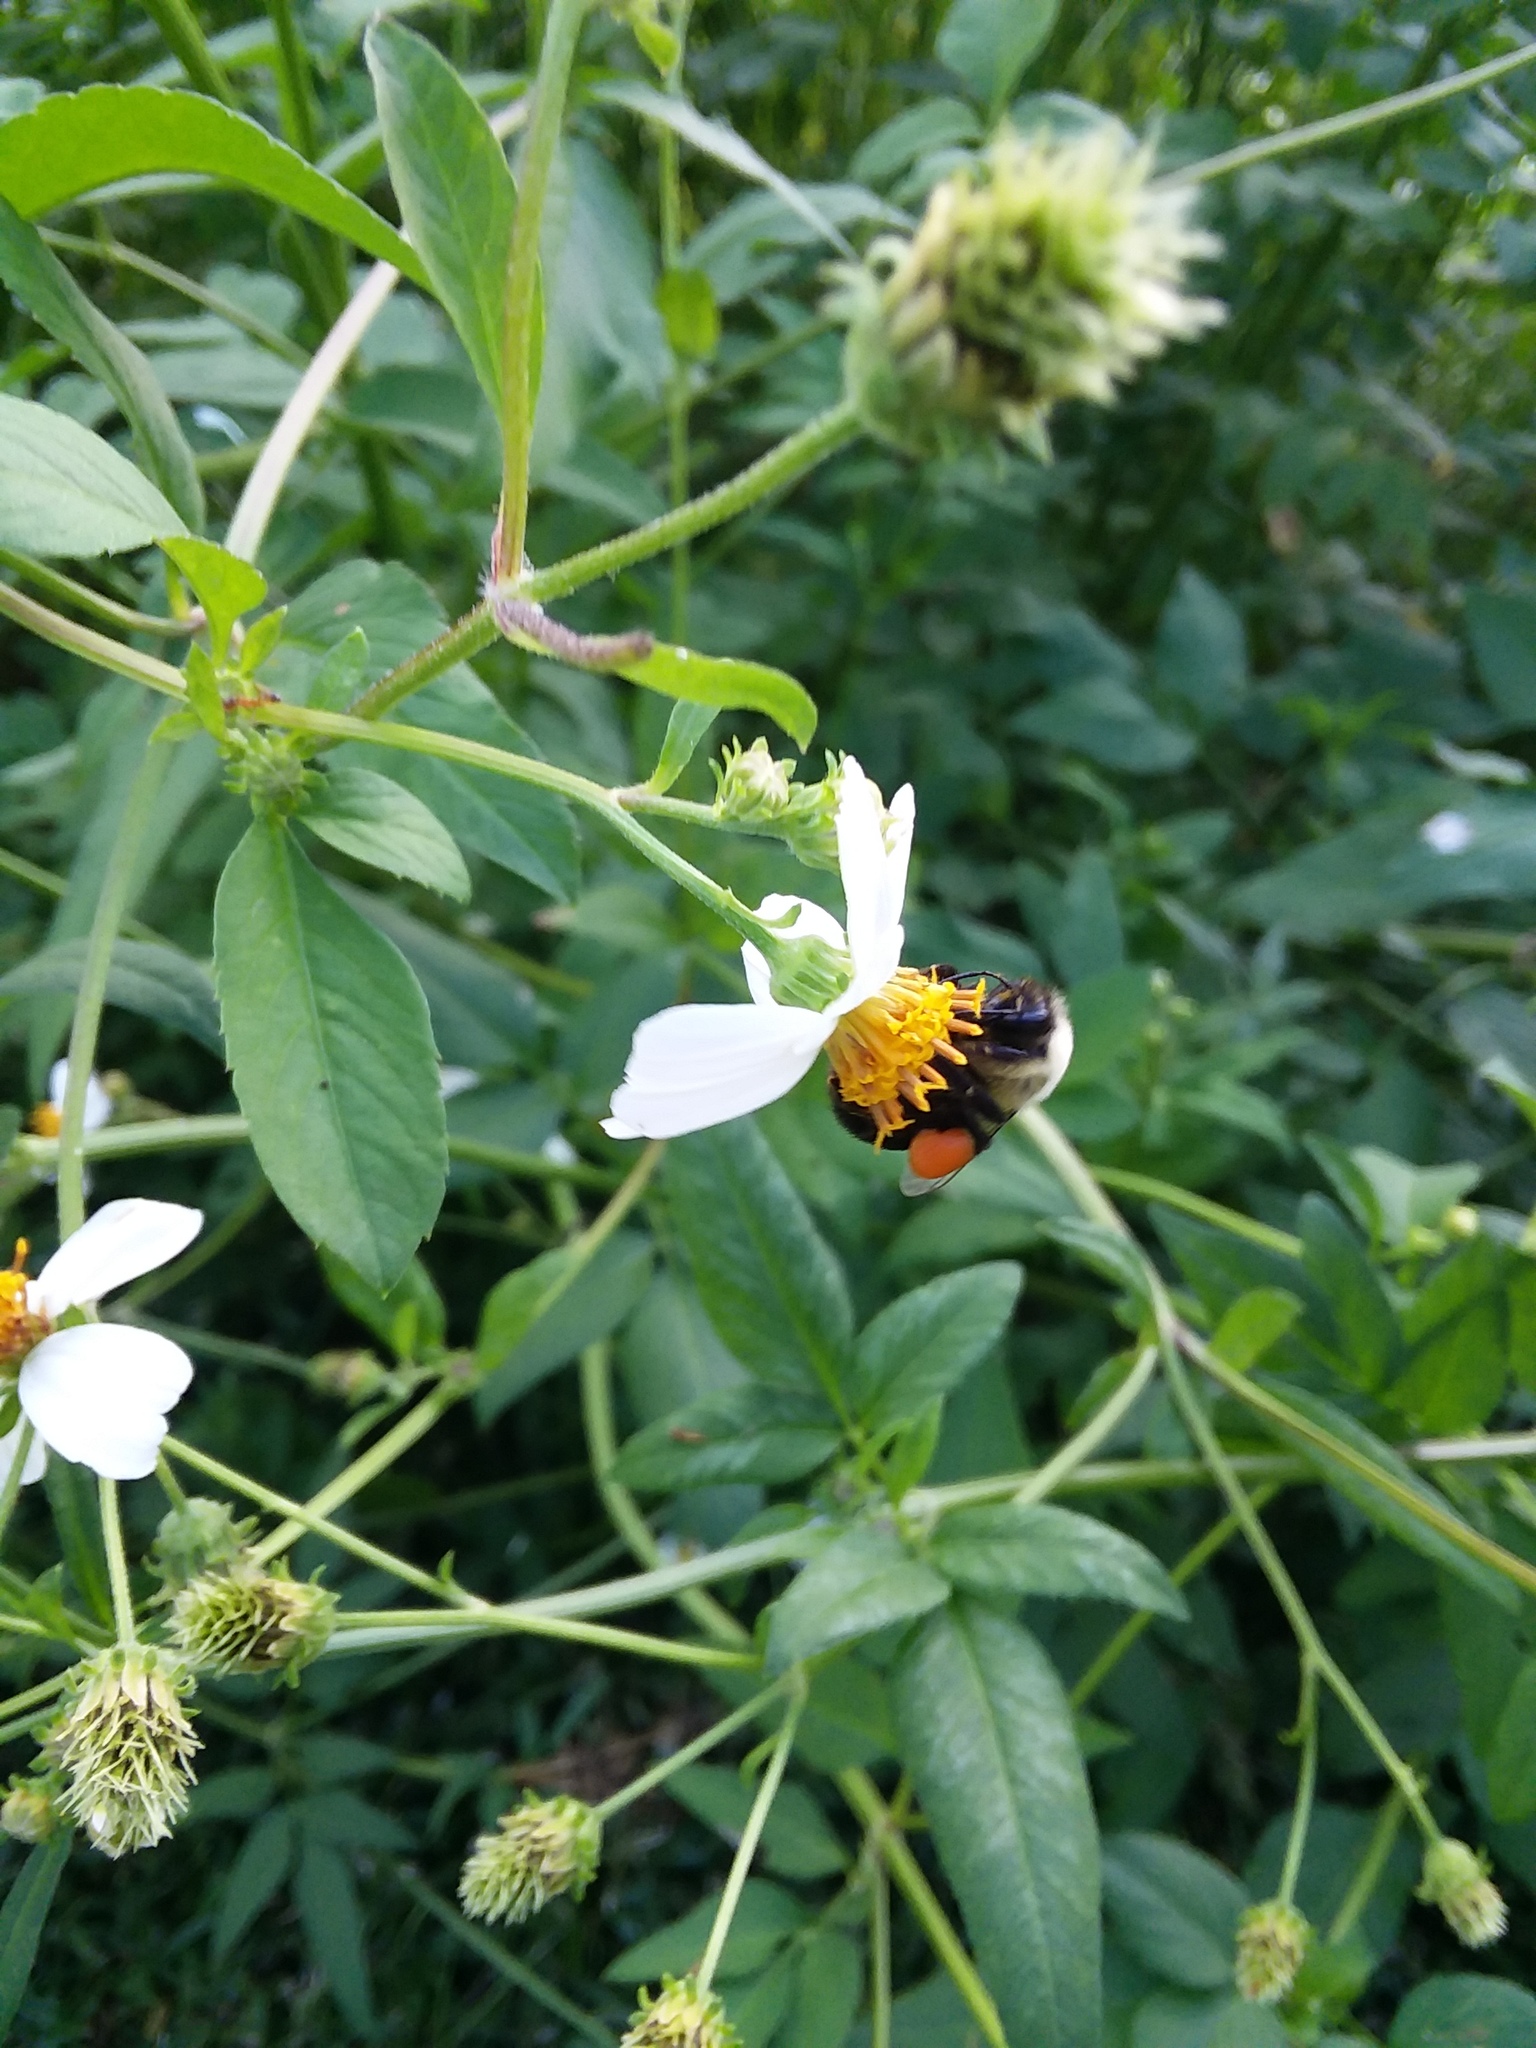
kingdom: Animalia
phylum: Arthropoda
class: Insecta
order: Hymenoptera
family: Apidae
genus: Bombus
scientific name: Bombus impatiens
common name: Common eastern bumble bee
